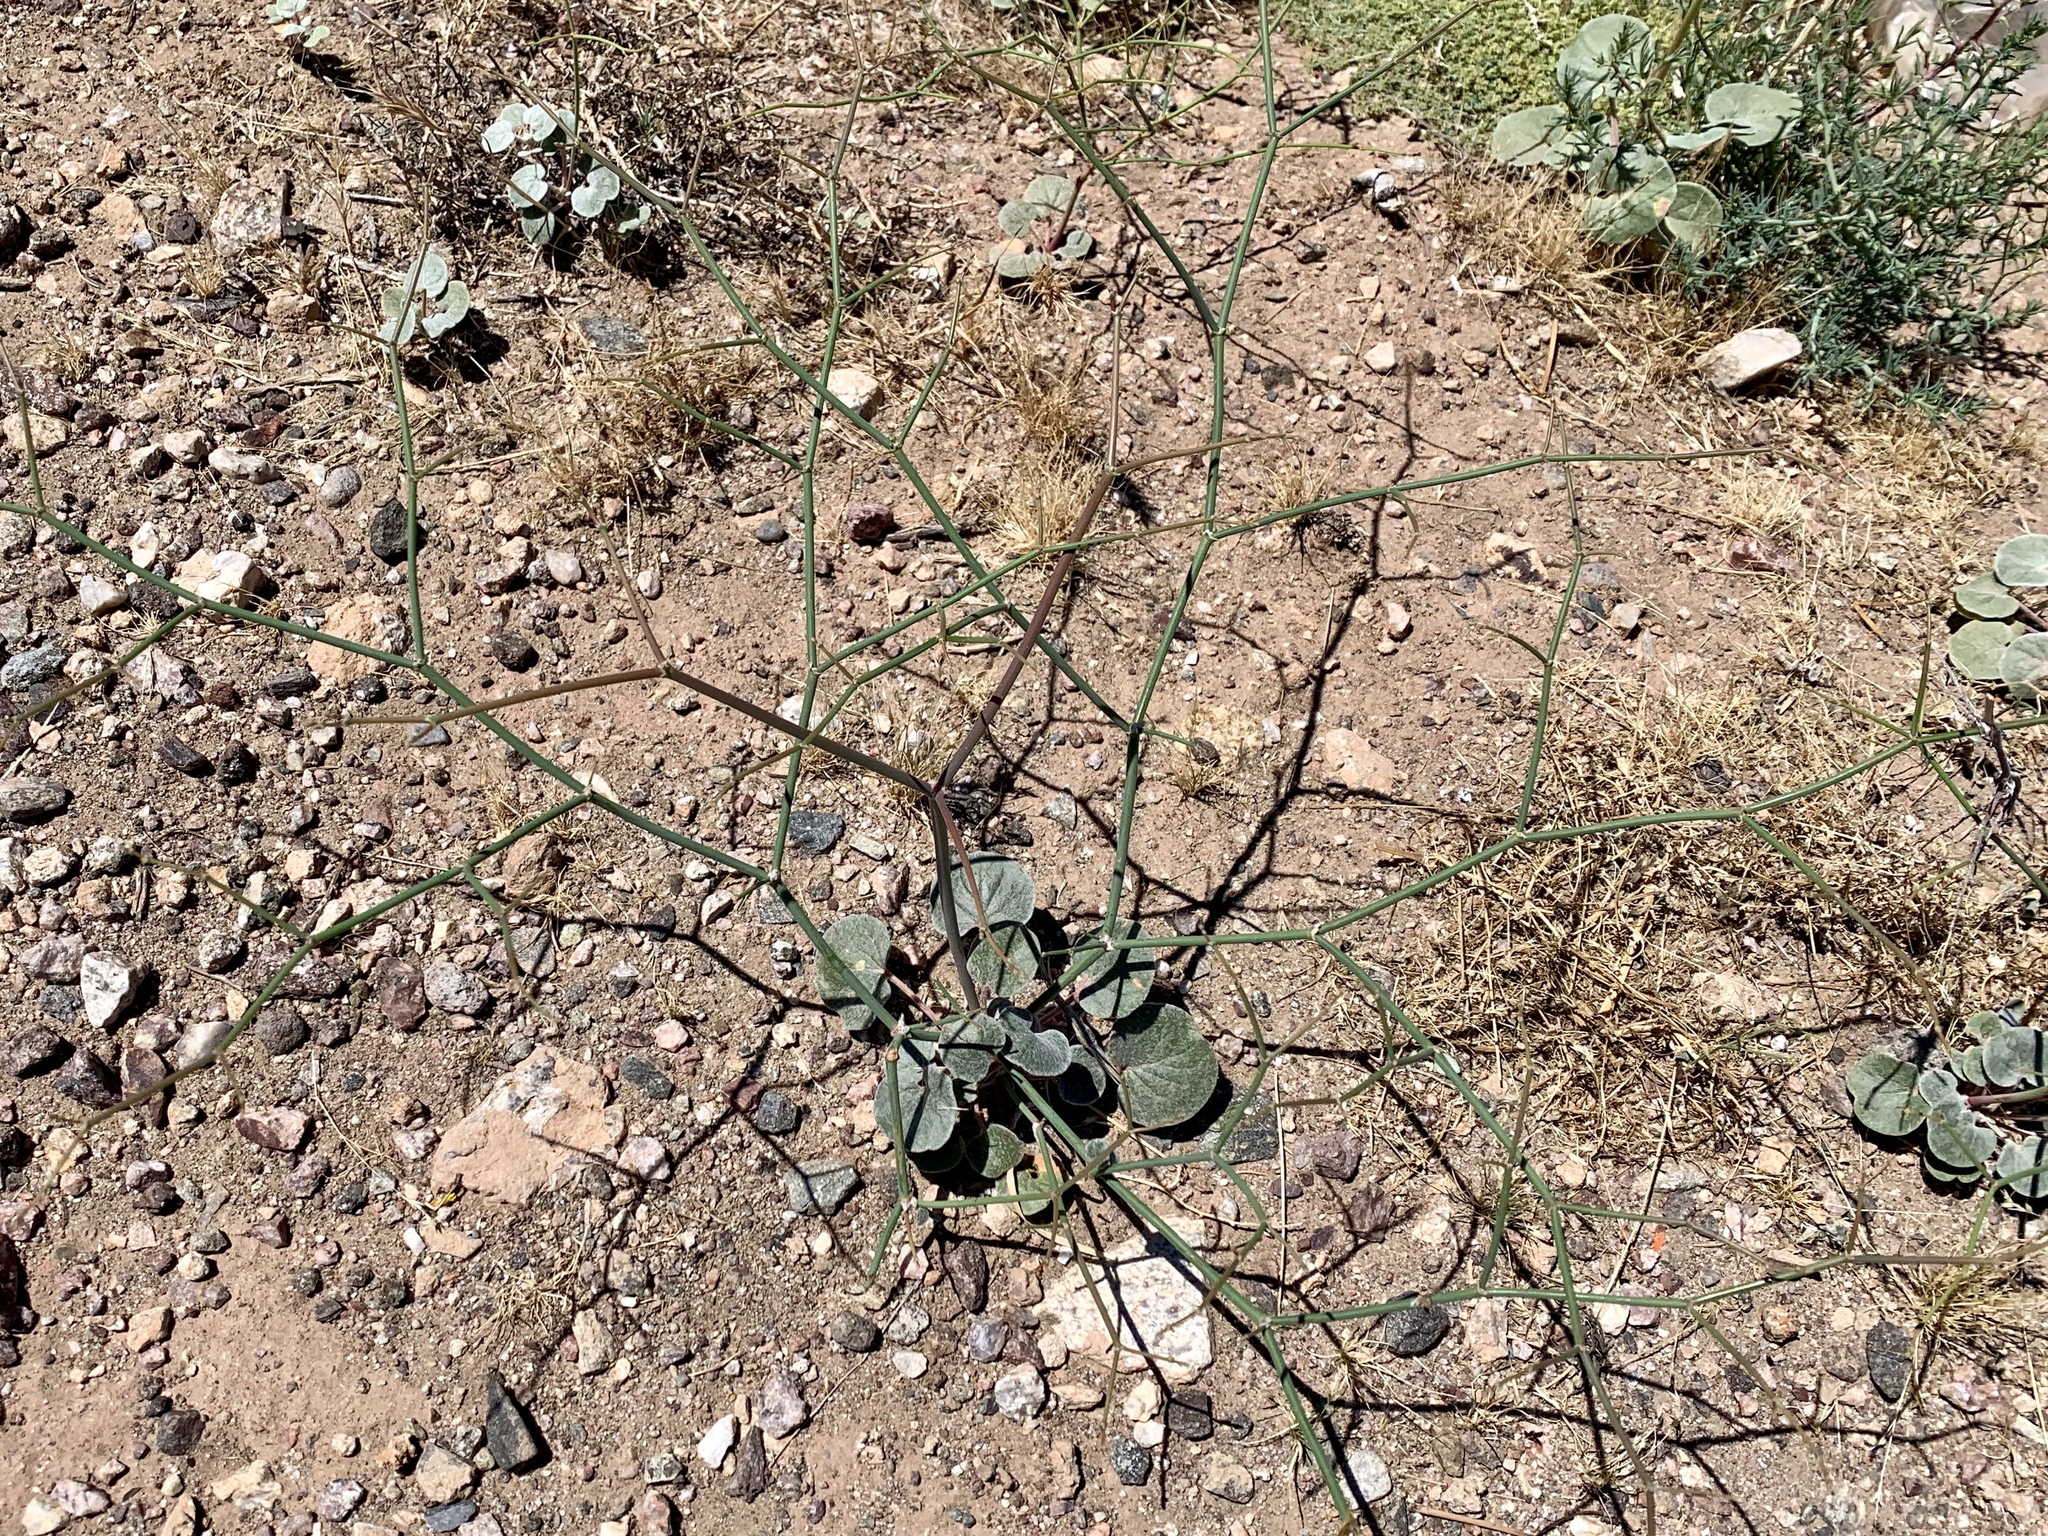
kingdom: Plantae
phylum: Tracheophyta
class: Magnoliopsida
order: Caryophyllales
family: Polygonaceae
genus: Eriogonum
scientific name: Eriogonum deflexum
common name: Skeleton-weed
